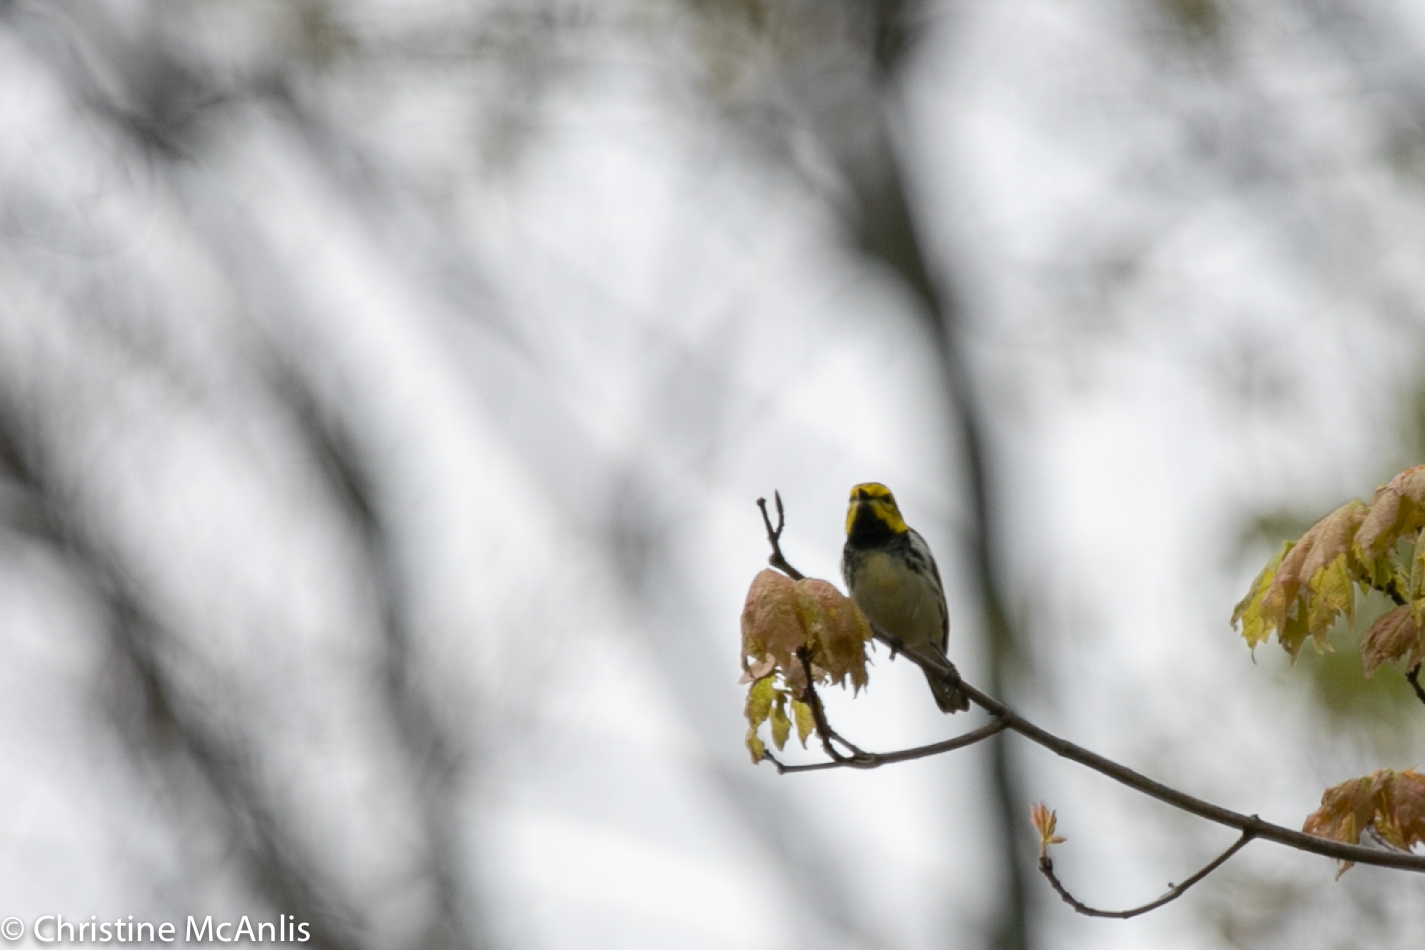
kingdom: Animalia
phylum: Chordata
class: Aves
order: Passeriformes
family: Parulidae
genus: Setophaga
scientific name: Setophaga virens
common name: Black-throated green warbler
